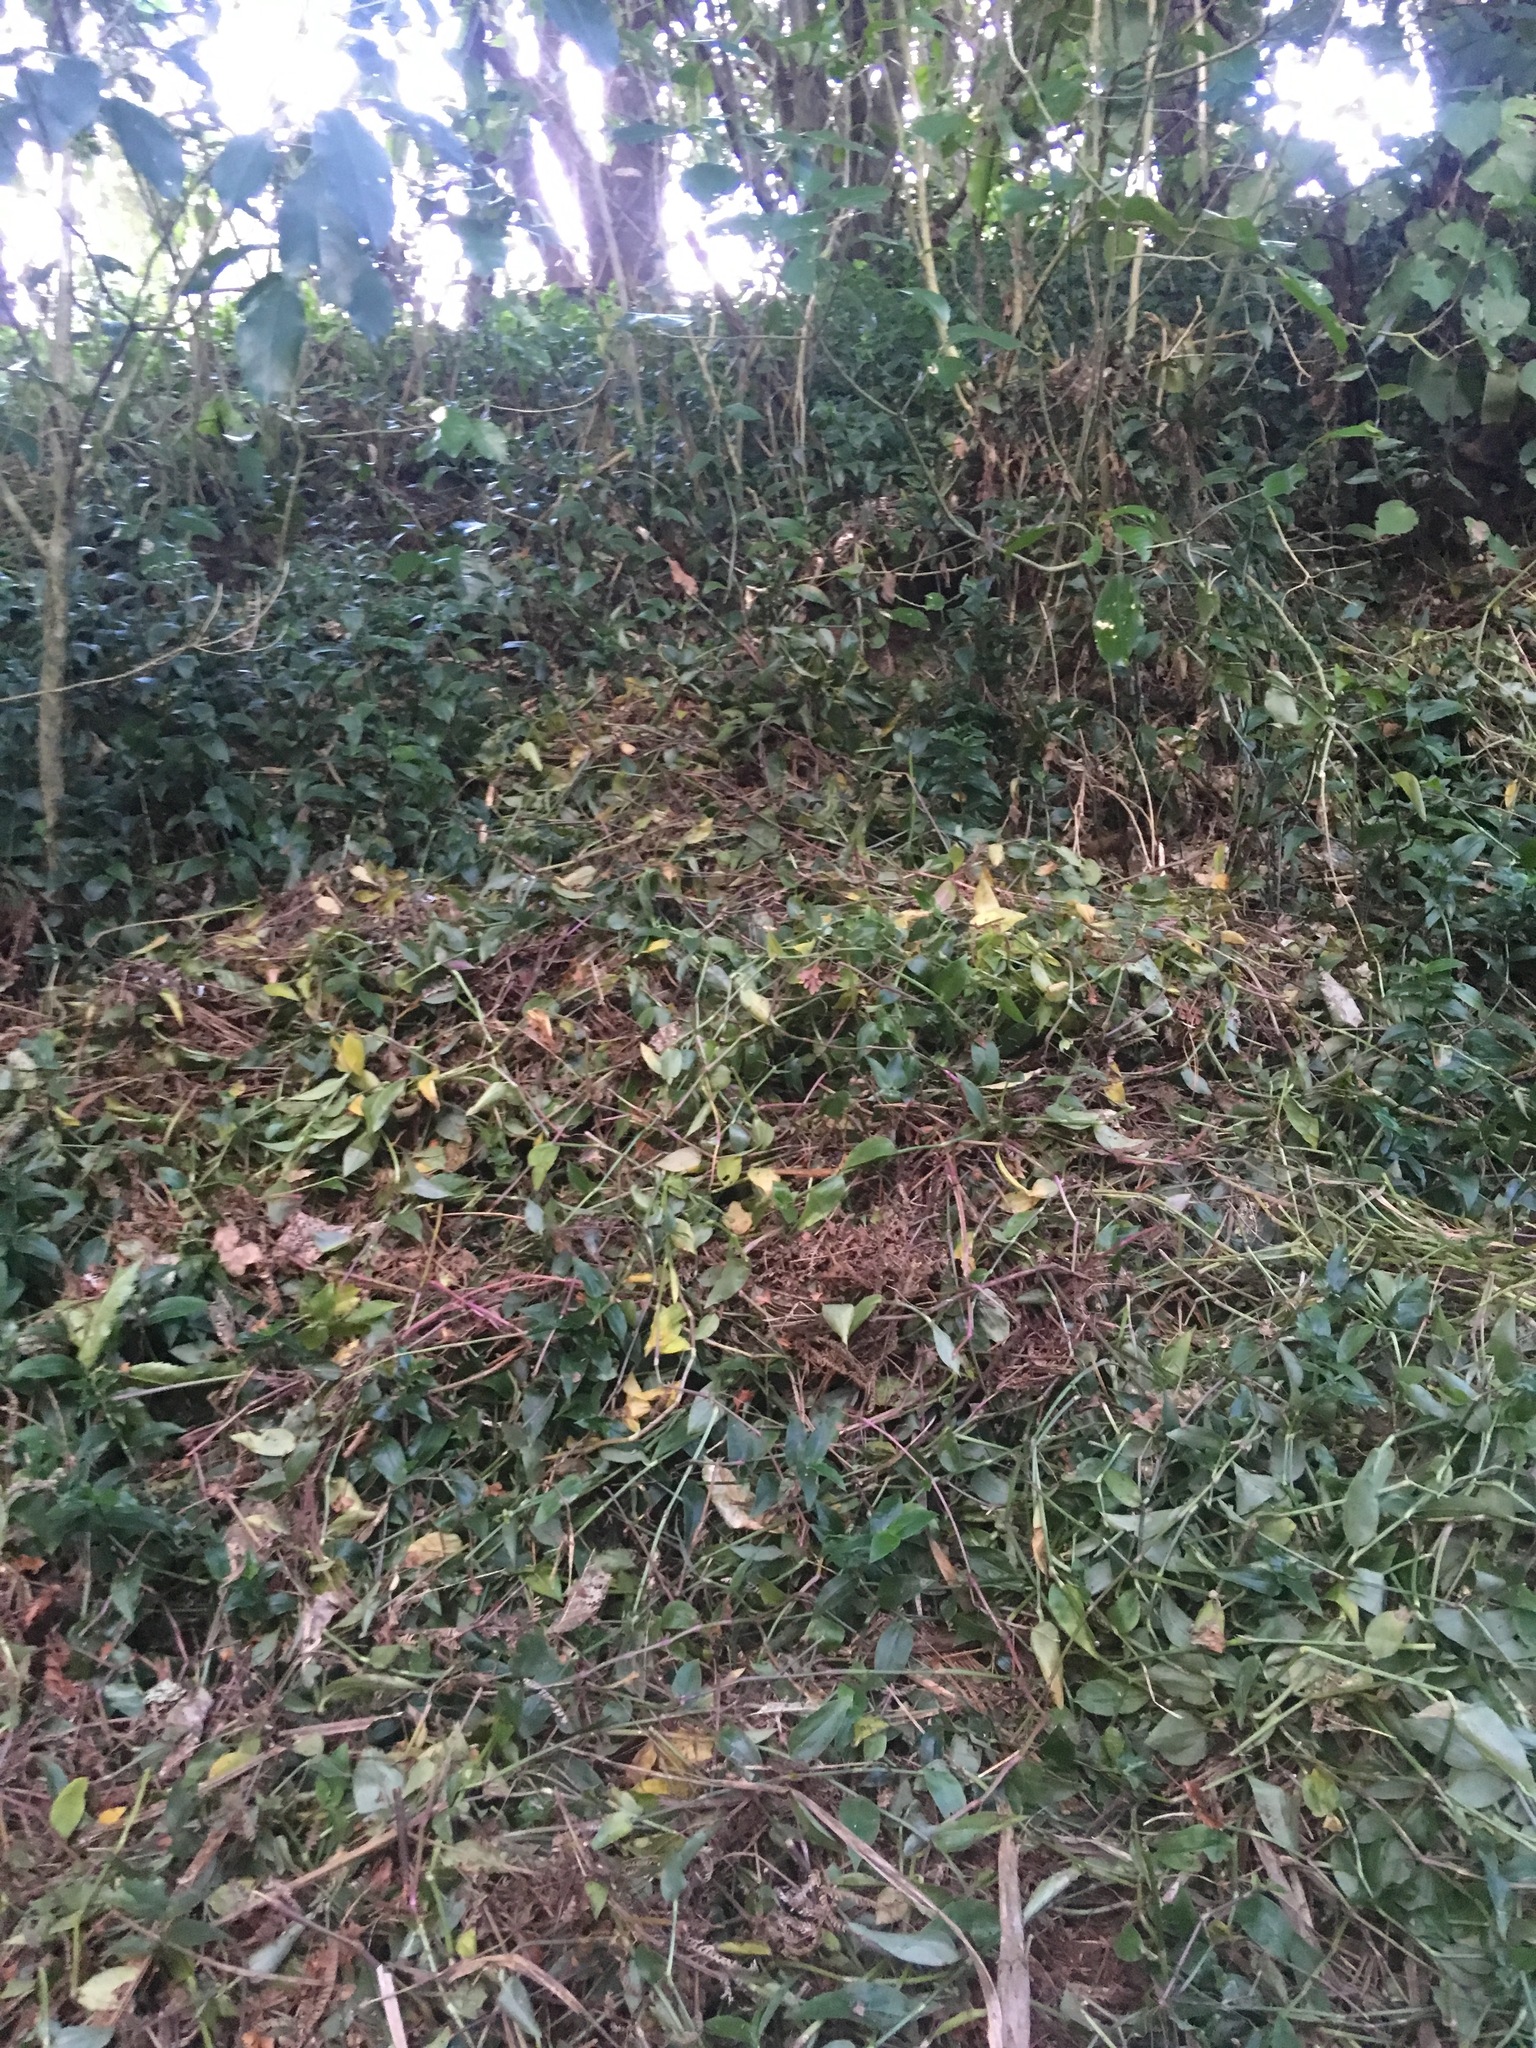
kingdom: Plantae
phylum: Tracheophyta
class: Liliopsida
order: Commelinales
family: Commelinaceae
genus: Tradescantia
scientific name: Tradescantia fluminensis
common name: Wandering-jew
